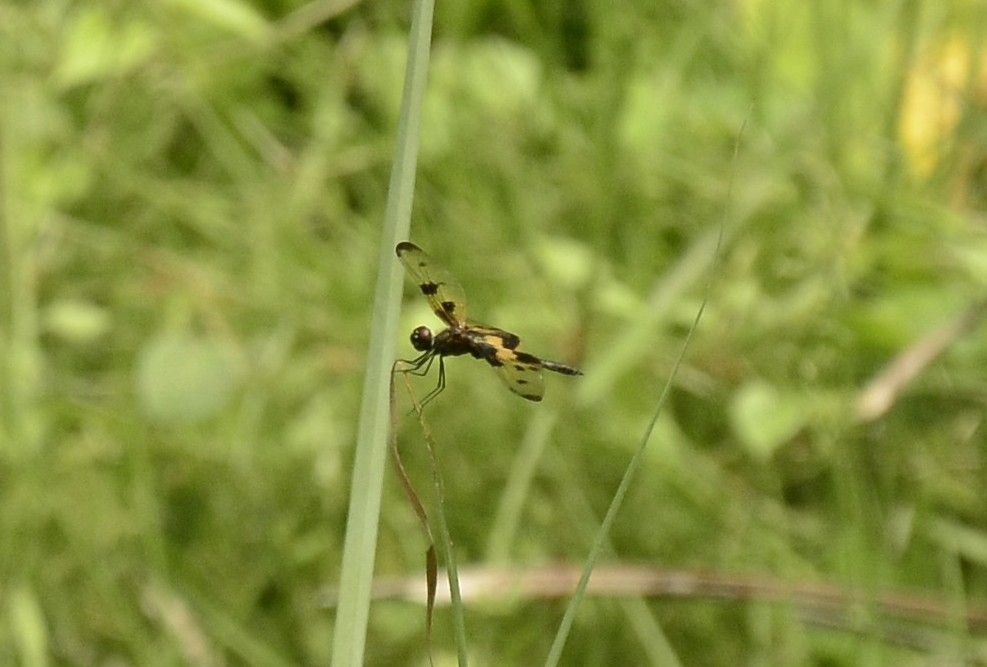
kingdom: Animalia
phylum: Arthropoda
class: Insecta
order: Odonata
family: Libellulidae
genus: Rhyothemis
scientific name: Rhyothemis variegata
